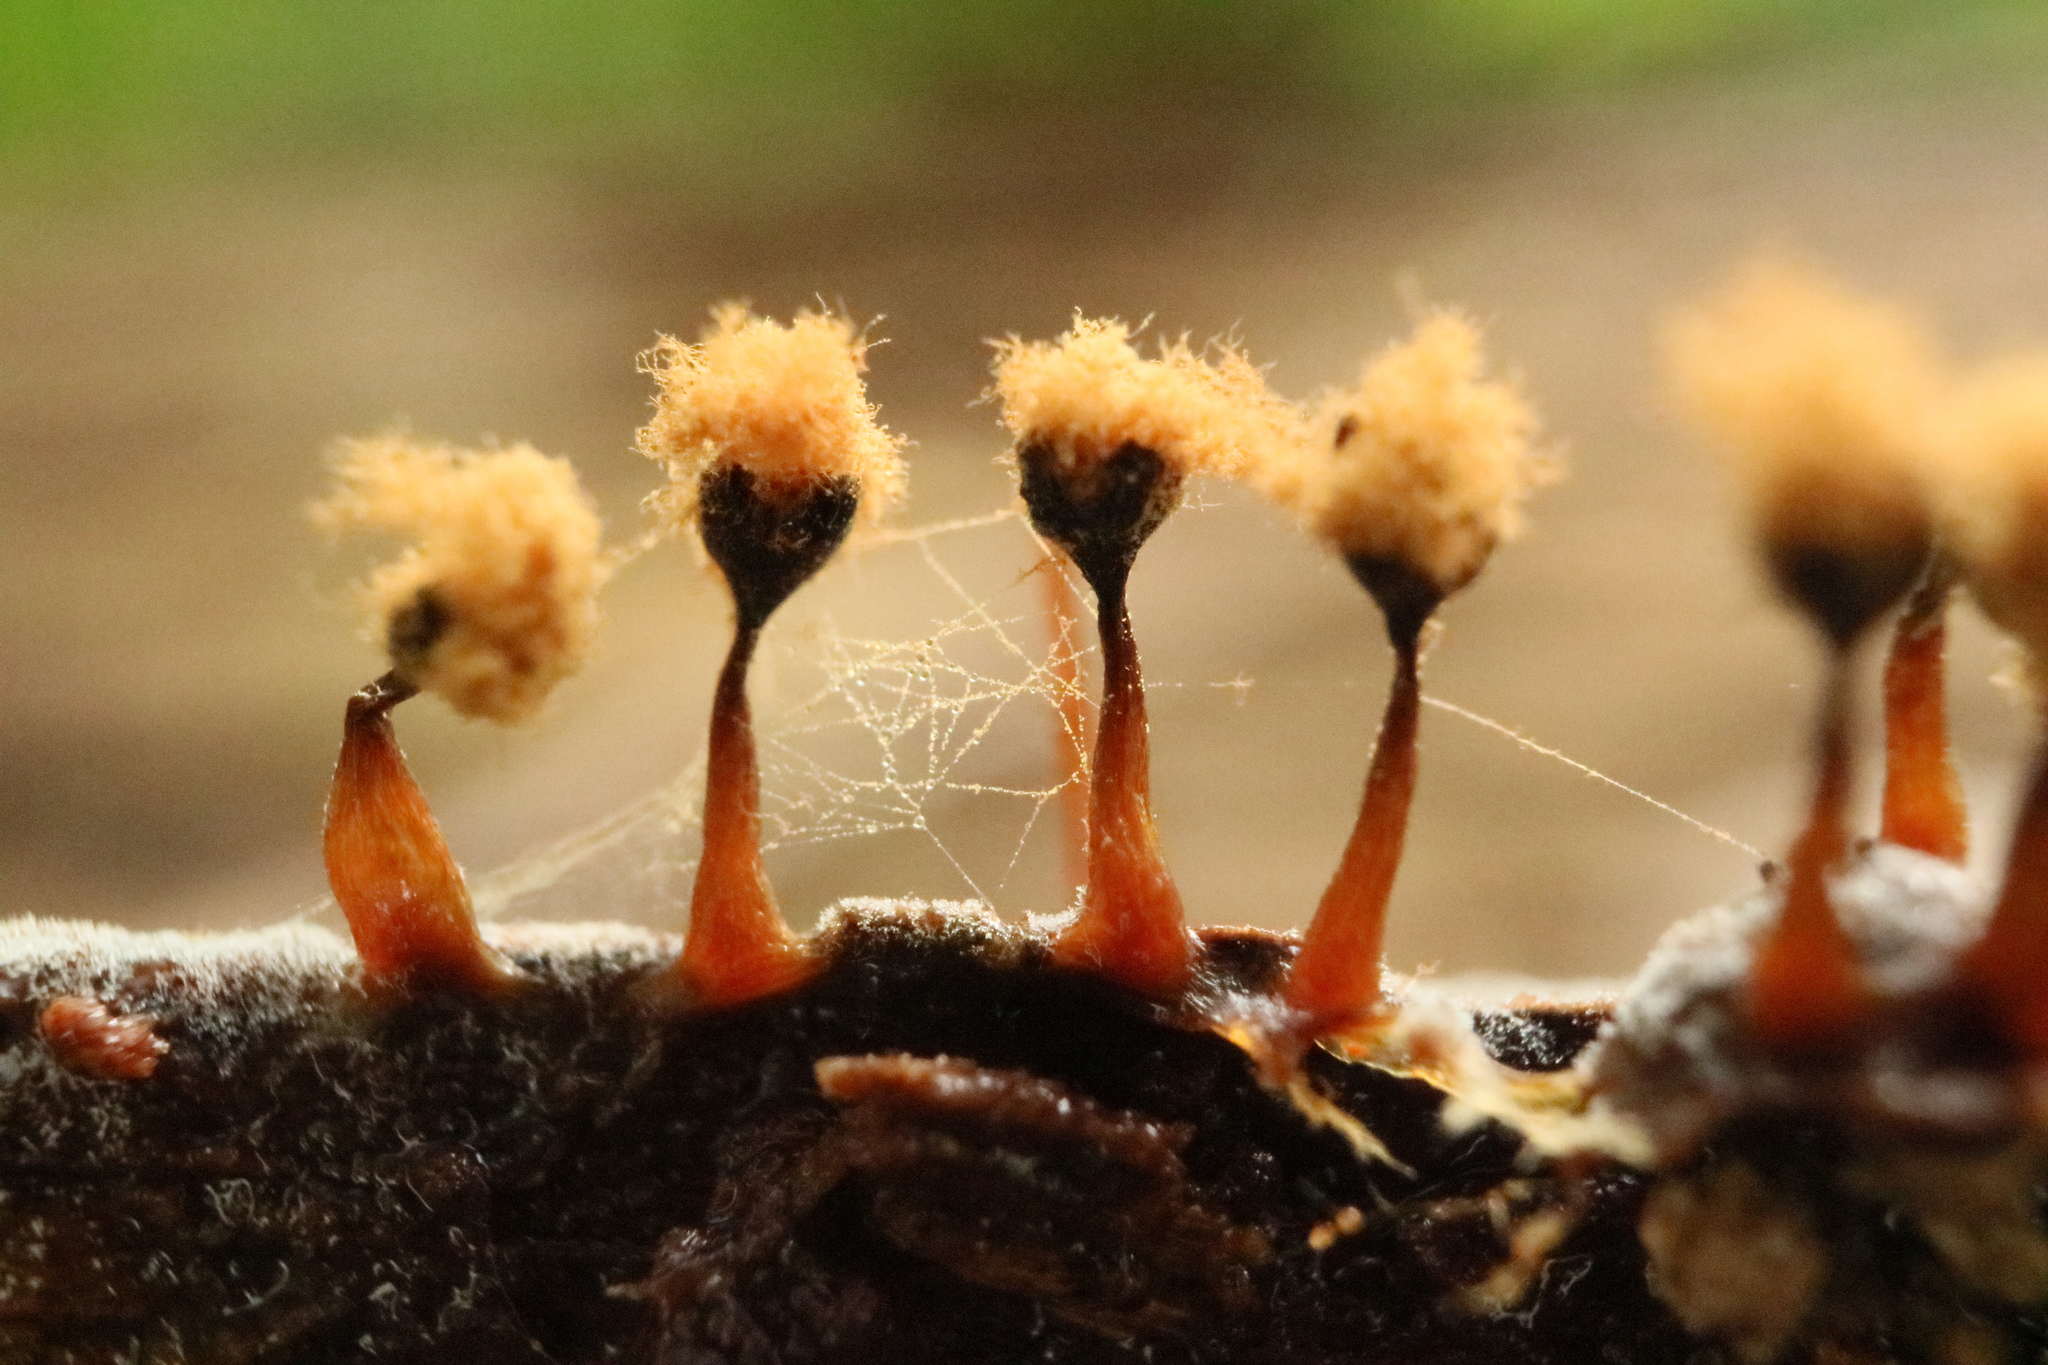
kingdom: Protozoa
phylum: Mycetozoa
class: Myxomycetes
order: Trichiales
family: Trichiaceae
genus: Metatrichia
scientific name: Metatrichia floriformis
